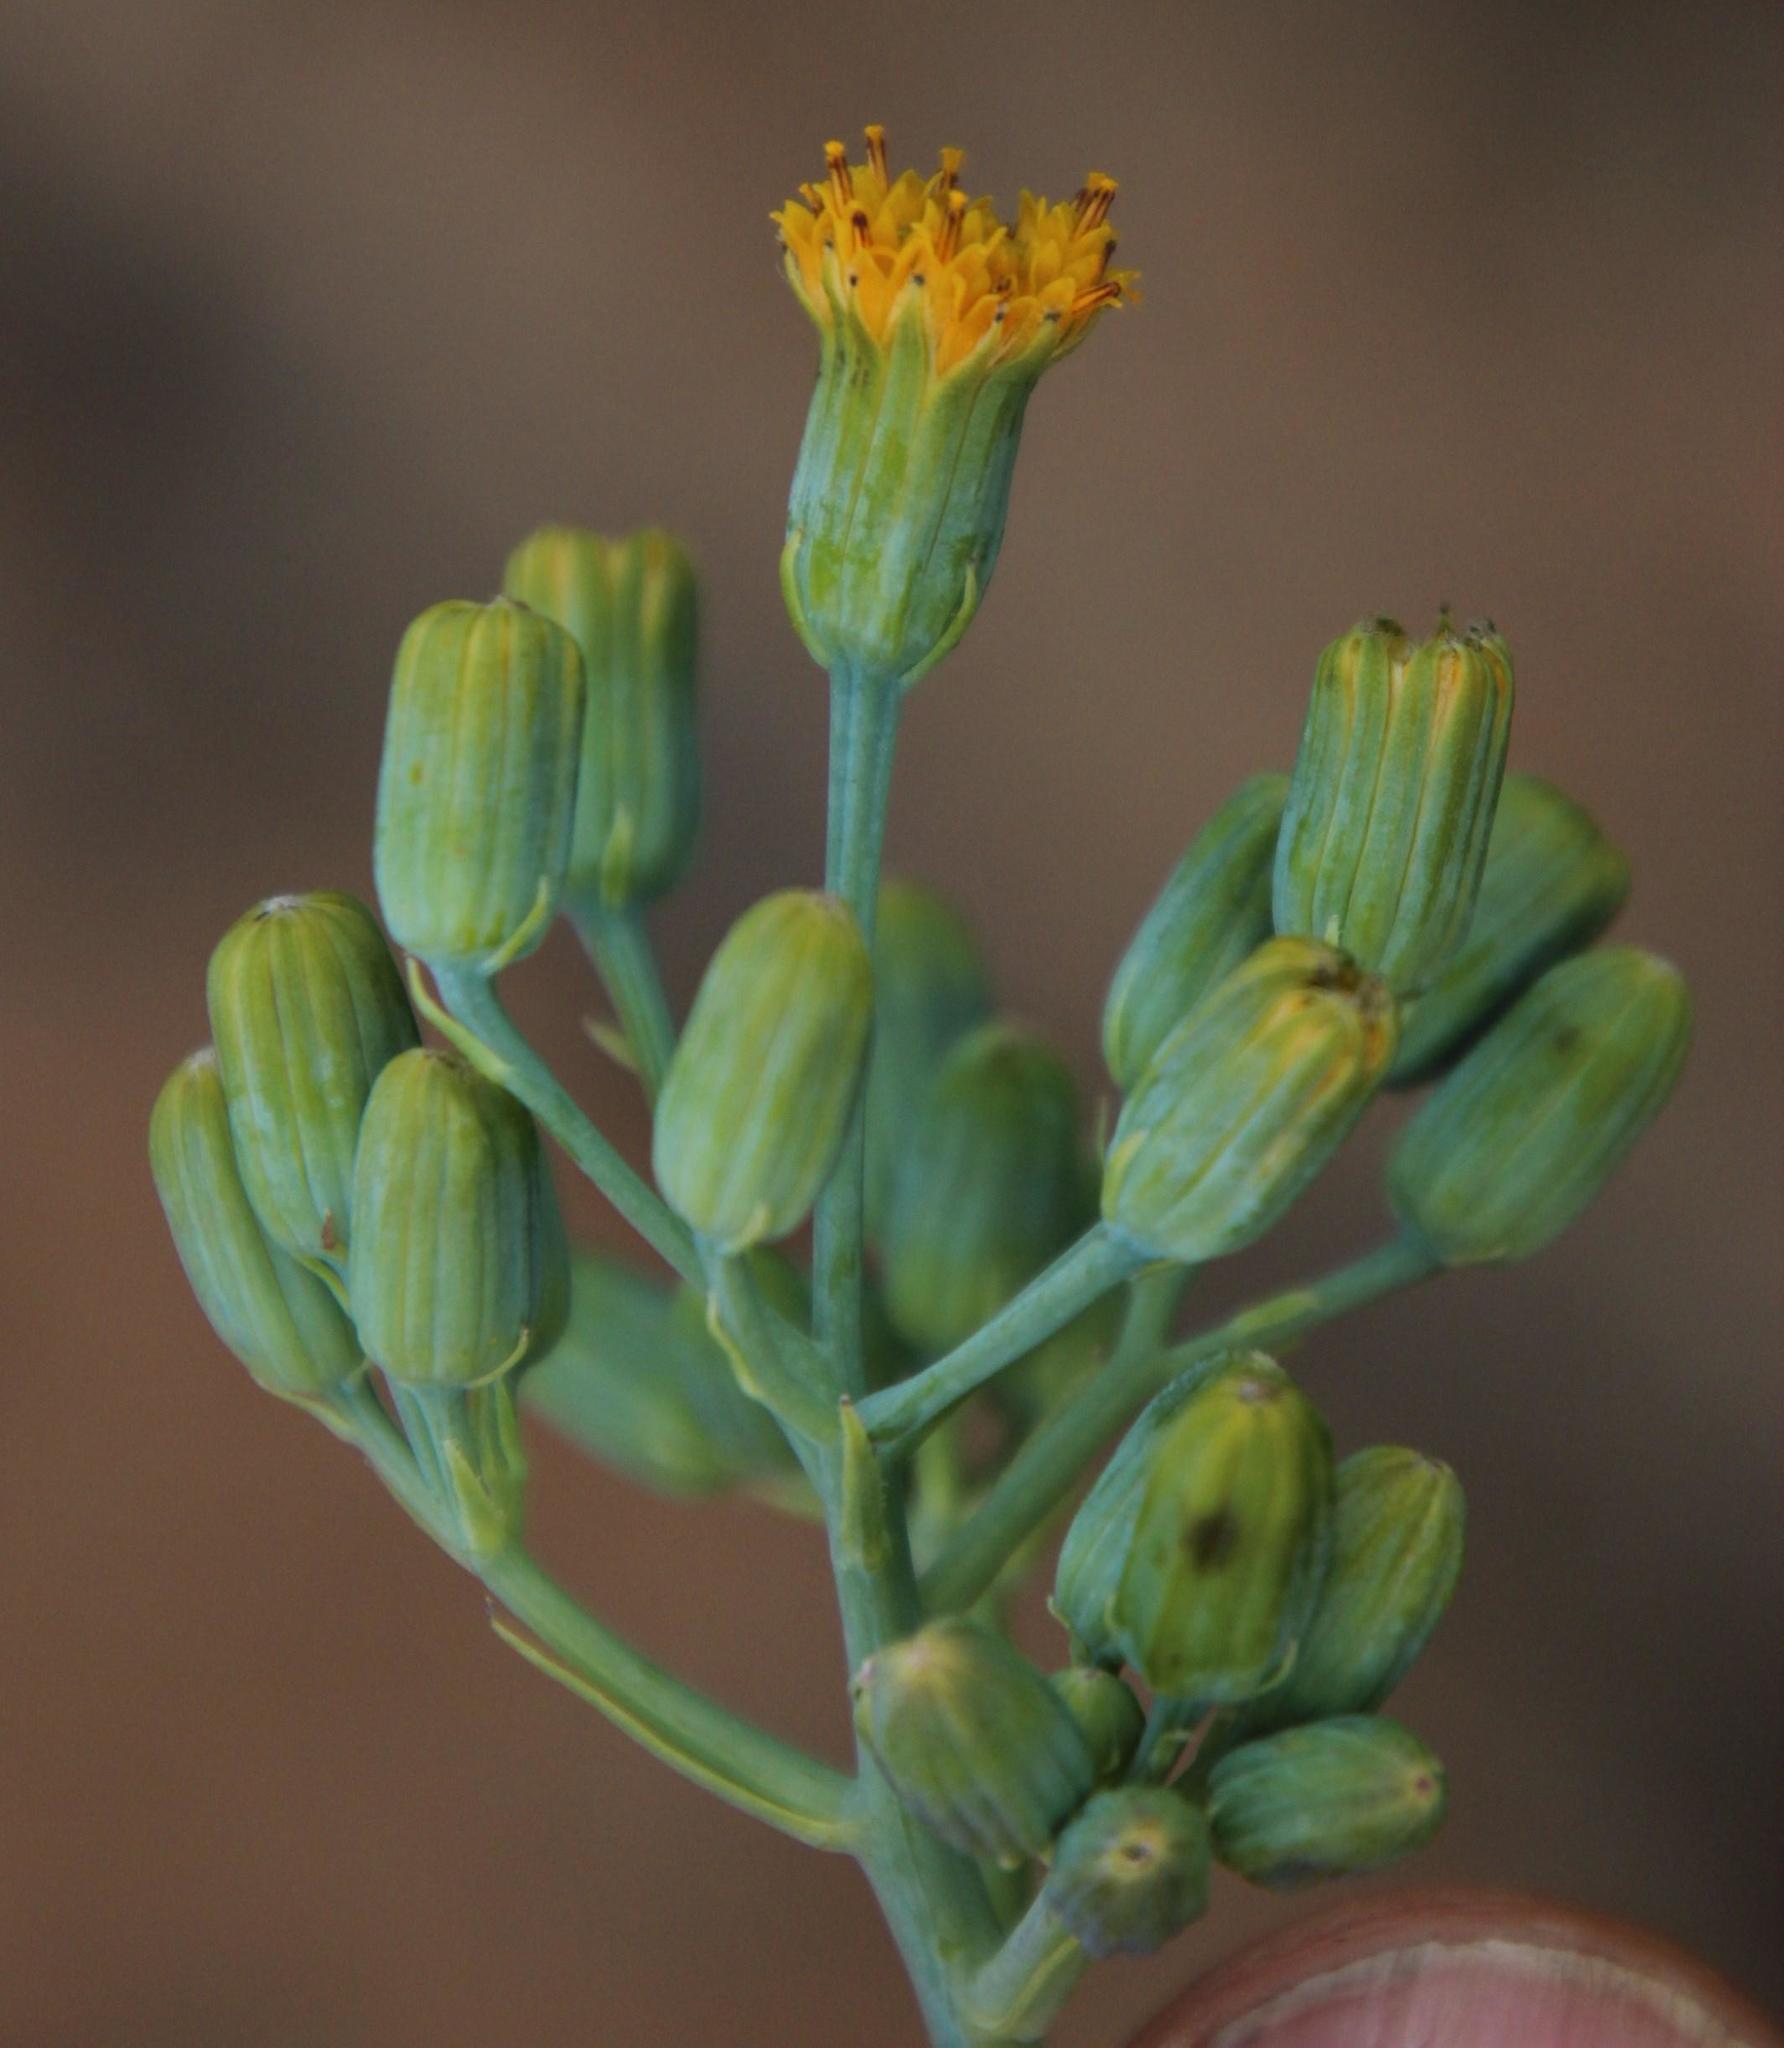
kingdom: Plantae
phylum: Tracheophyta
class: Magnoliopsida
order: Asterales
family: Asteraceae
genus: Senecio
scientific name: Senecio rhomboideus
